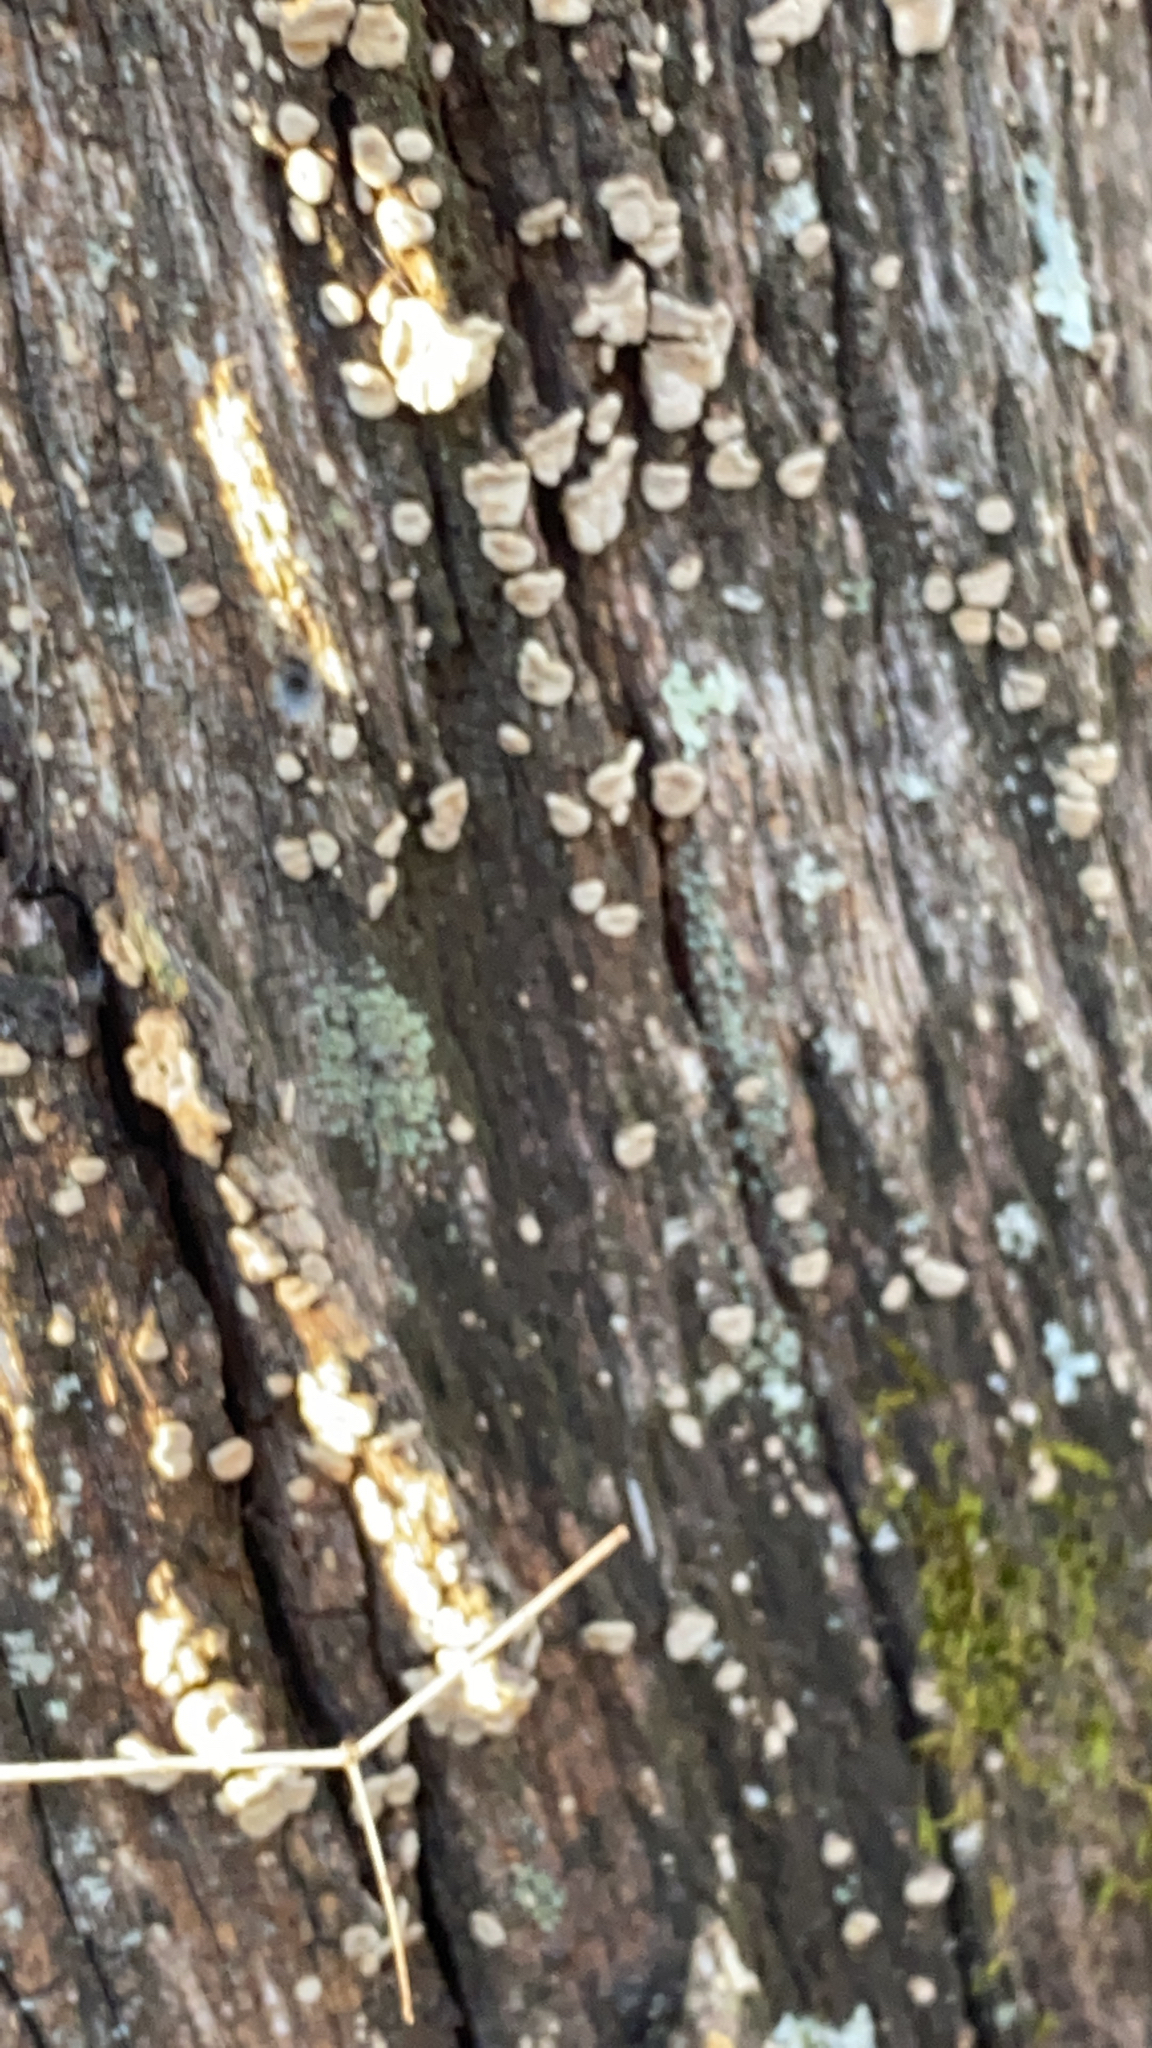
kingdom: Fungi
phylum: Basidiomycota
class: Agaricomycetes
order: Russulales
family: Stereaceae
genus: Acanthophysium
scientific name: Acanthophysium oakesii
